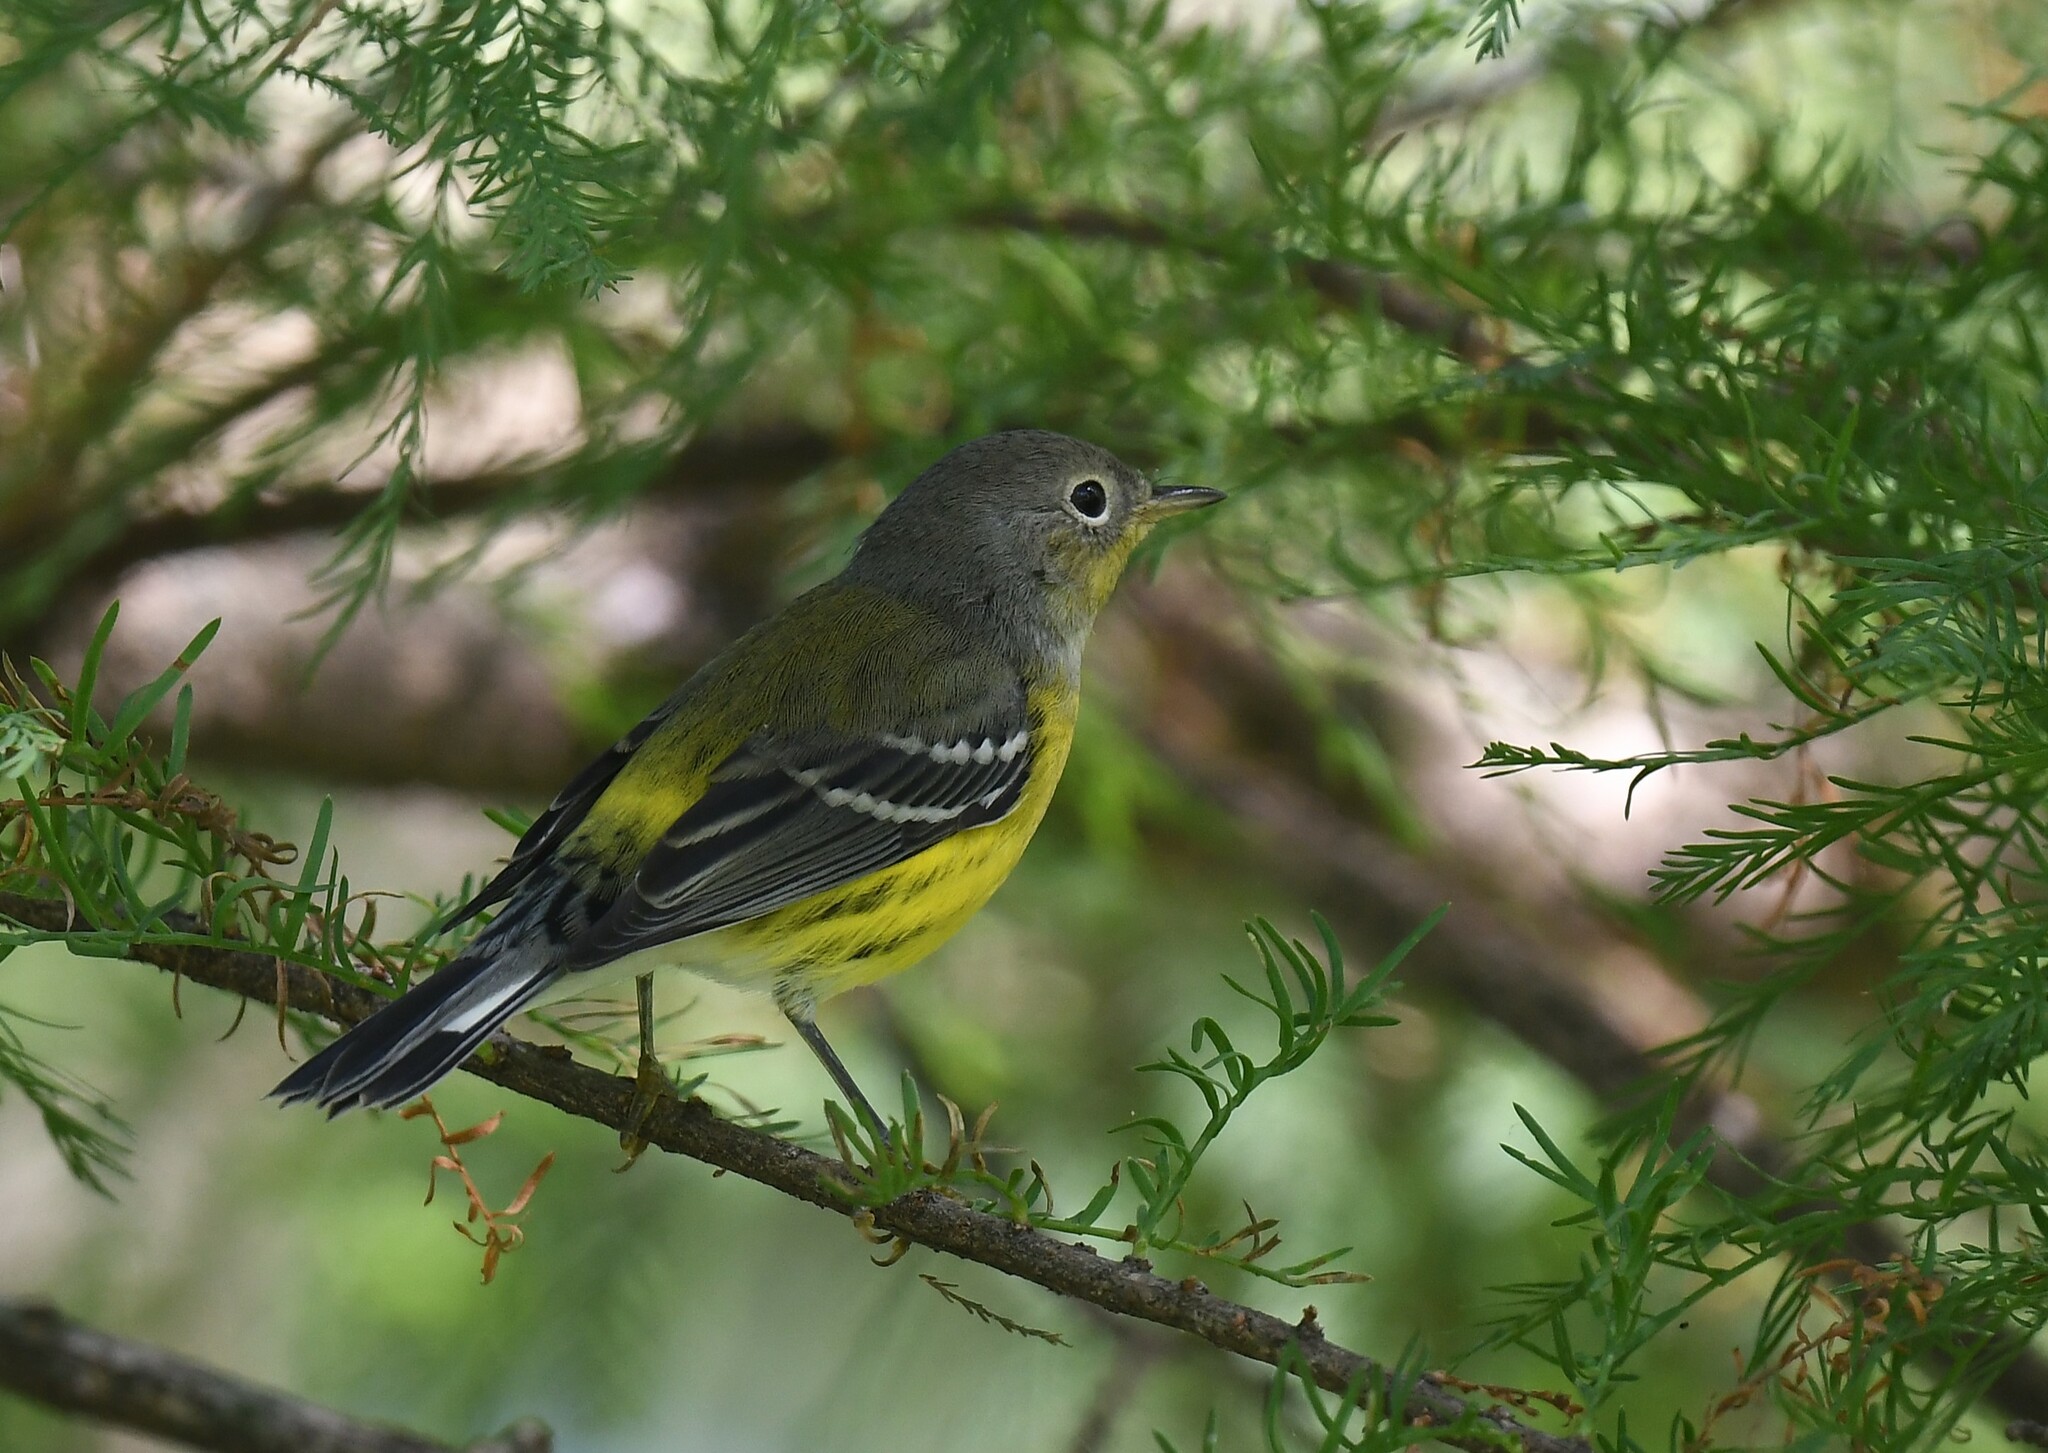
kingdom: Animalia
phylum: Chordata
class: Aves
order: Passeriformes
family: Parulidae
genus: Setophaga
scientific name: Setophaga magnolia
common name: Magnolia warbler
